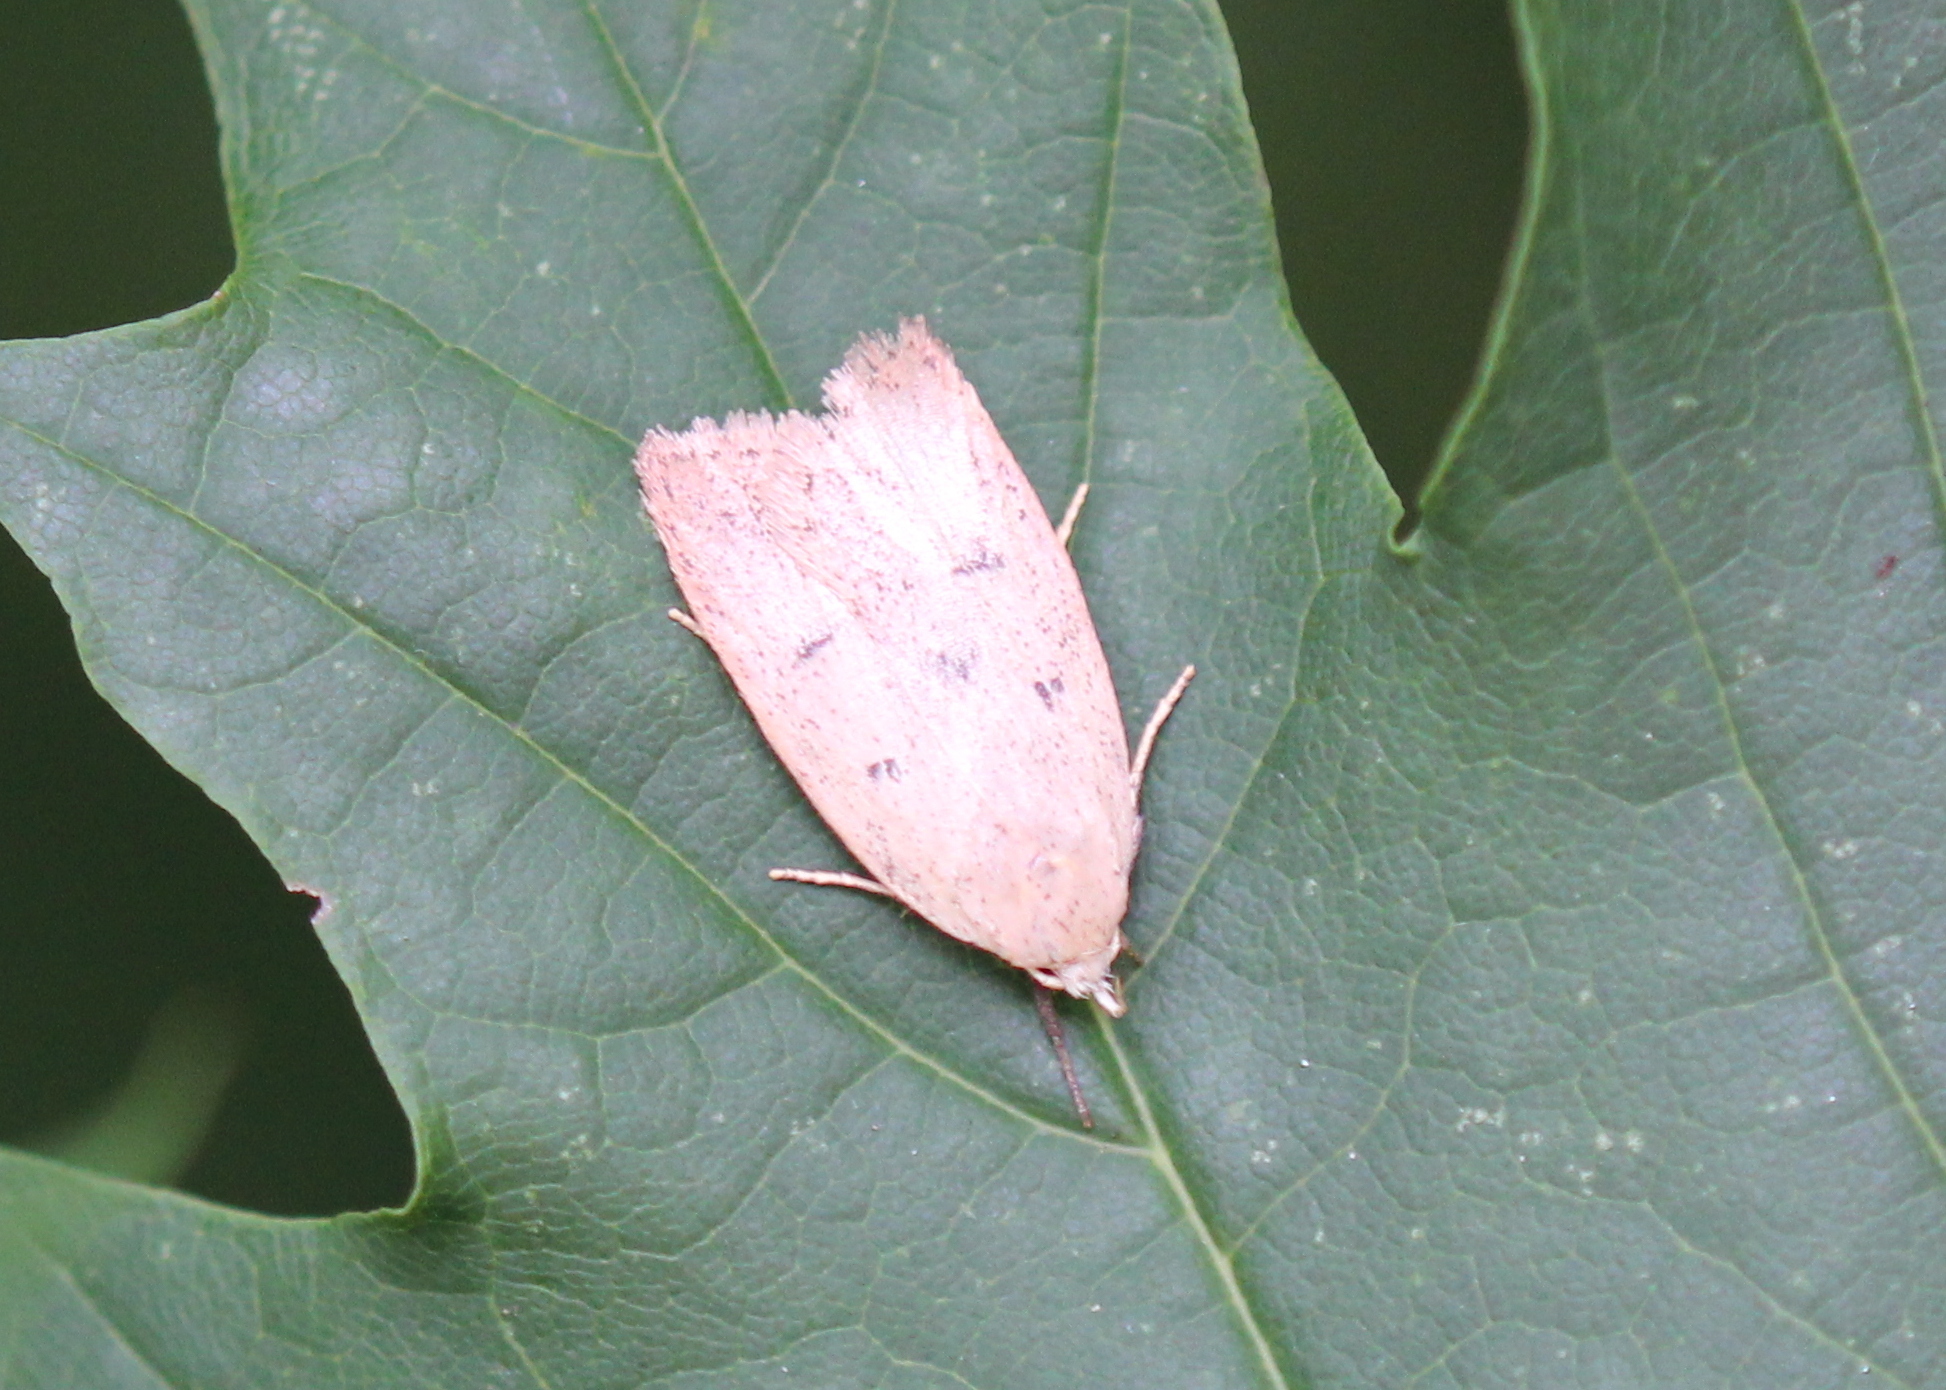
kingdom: Animalia
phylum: Arthropoda
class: Insecta
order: Lepidoptera
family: Peleopodidae
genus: Machimia
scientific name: Machimia tentoriferella
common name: Gold-striped leaftier moth
